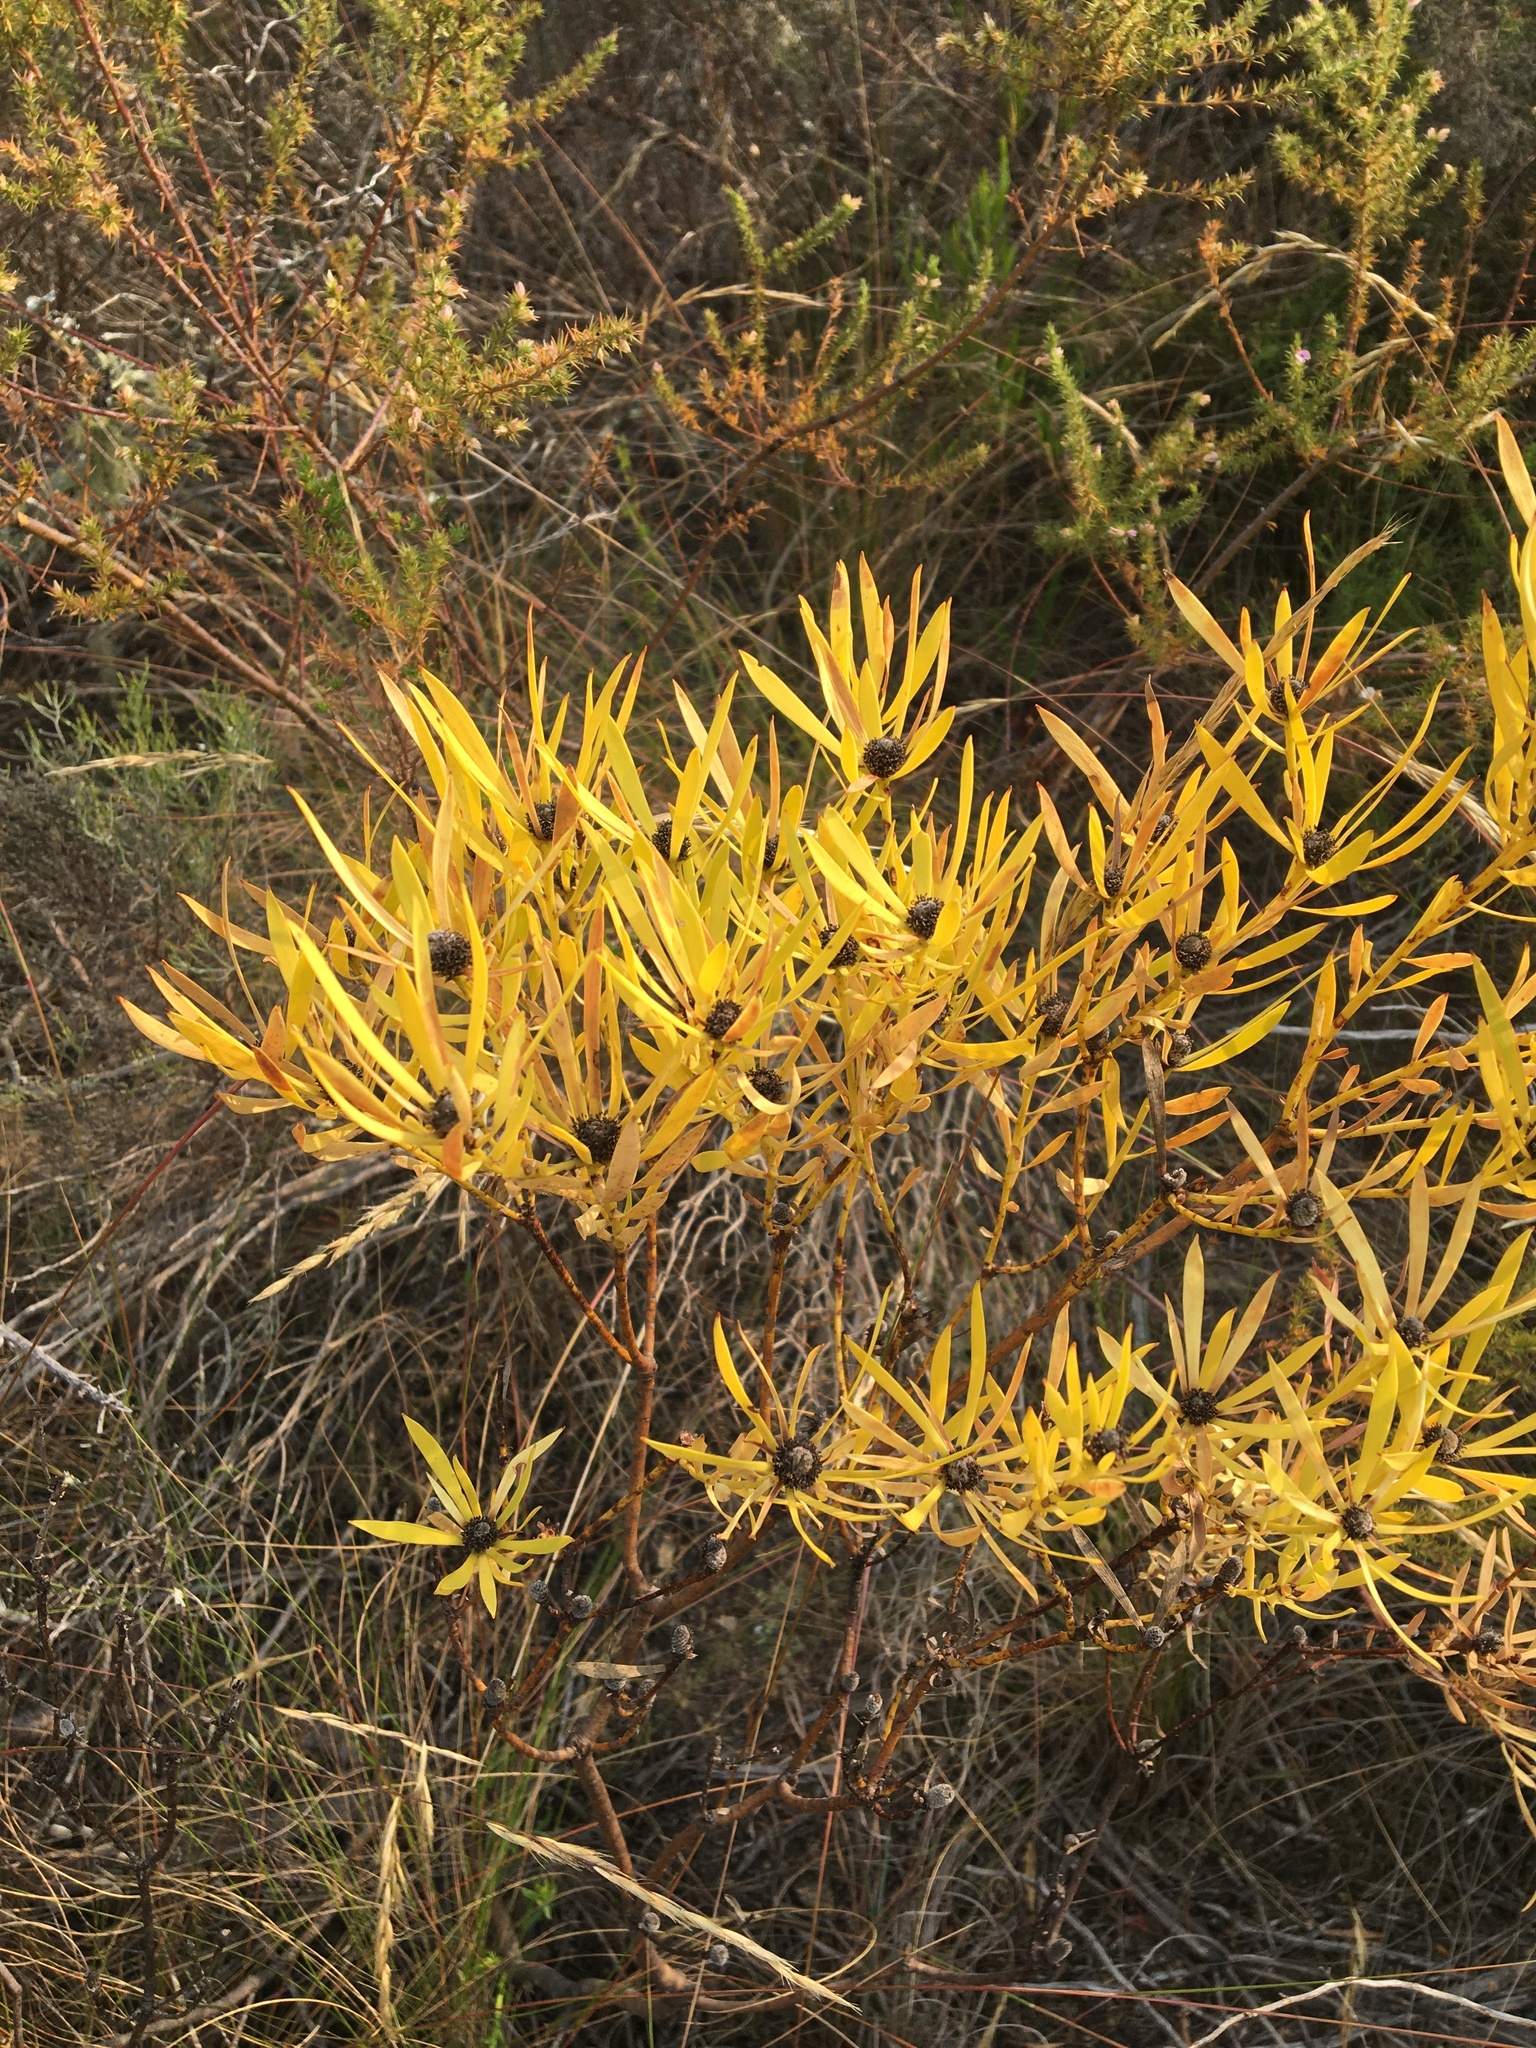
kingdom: Plantae
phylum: Tracheophyta
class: Magnoliopsida
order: Proteales
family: Proteaceae
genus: Leucadendron
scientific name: Leucadendron salignum
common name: Common sunshine conebush
